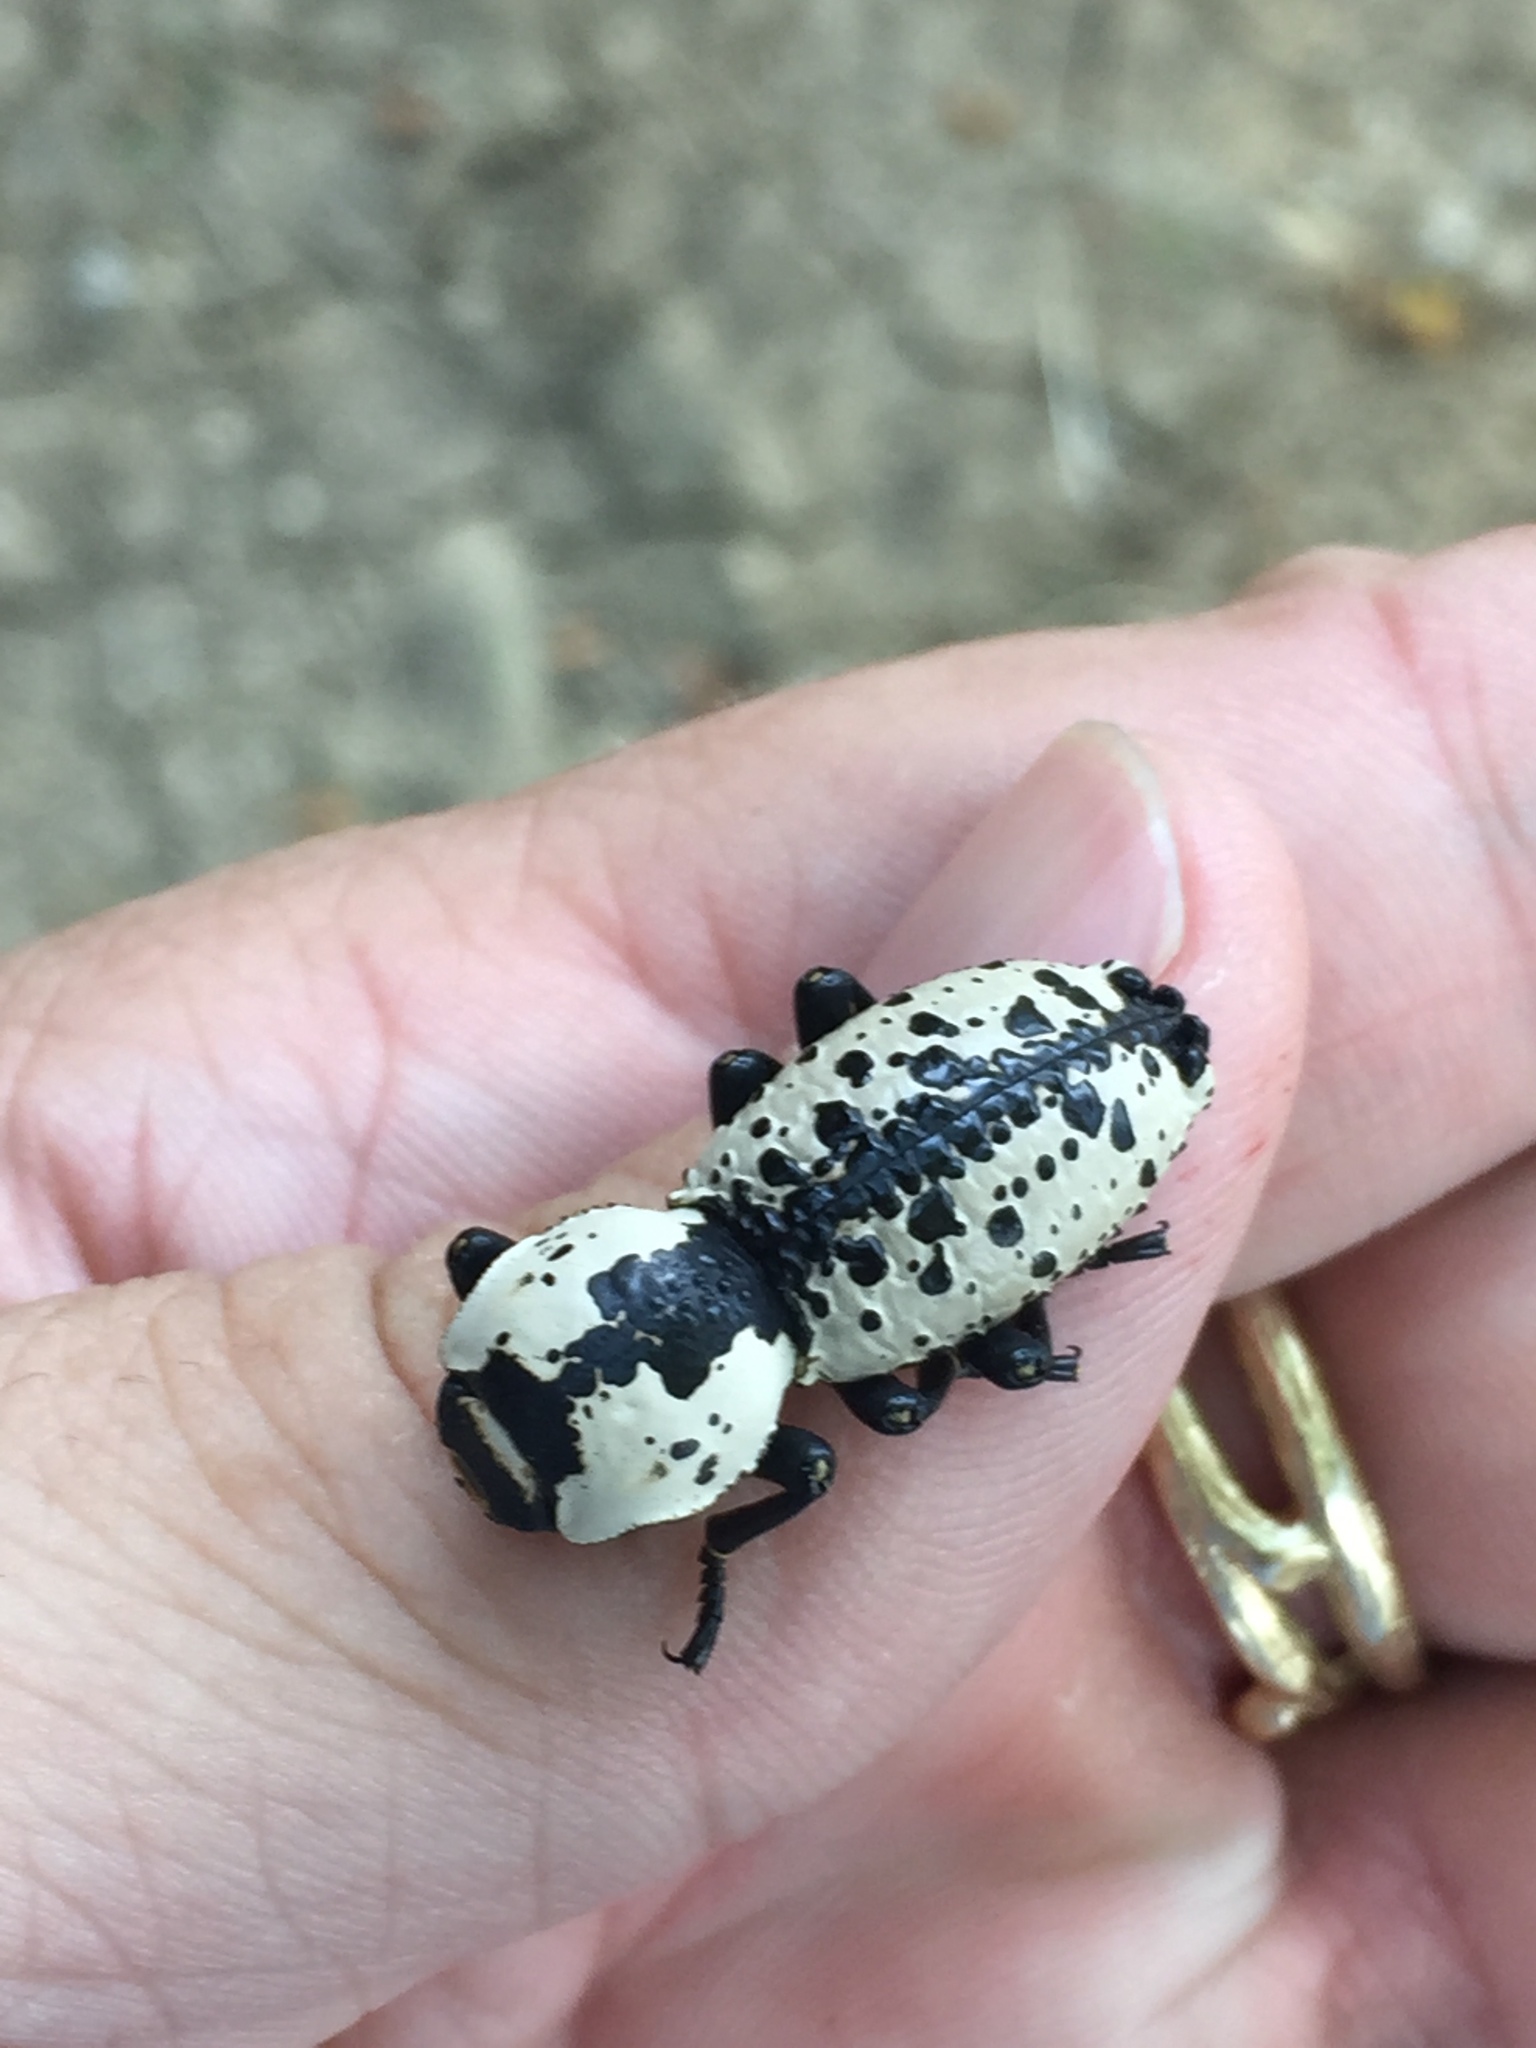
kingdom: Animalia
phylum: Arthropoda
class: Insecta
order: Coleoptera
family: Zopheridae
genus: Zopherus
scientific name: Zopherus nodulosus
